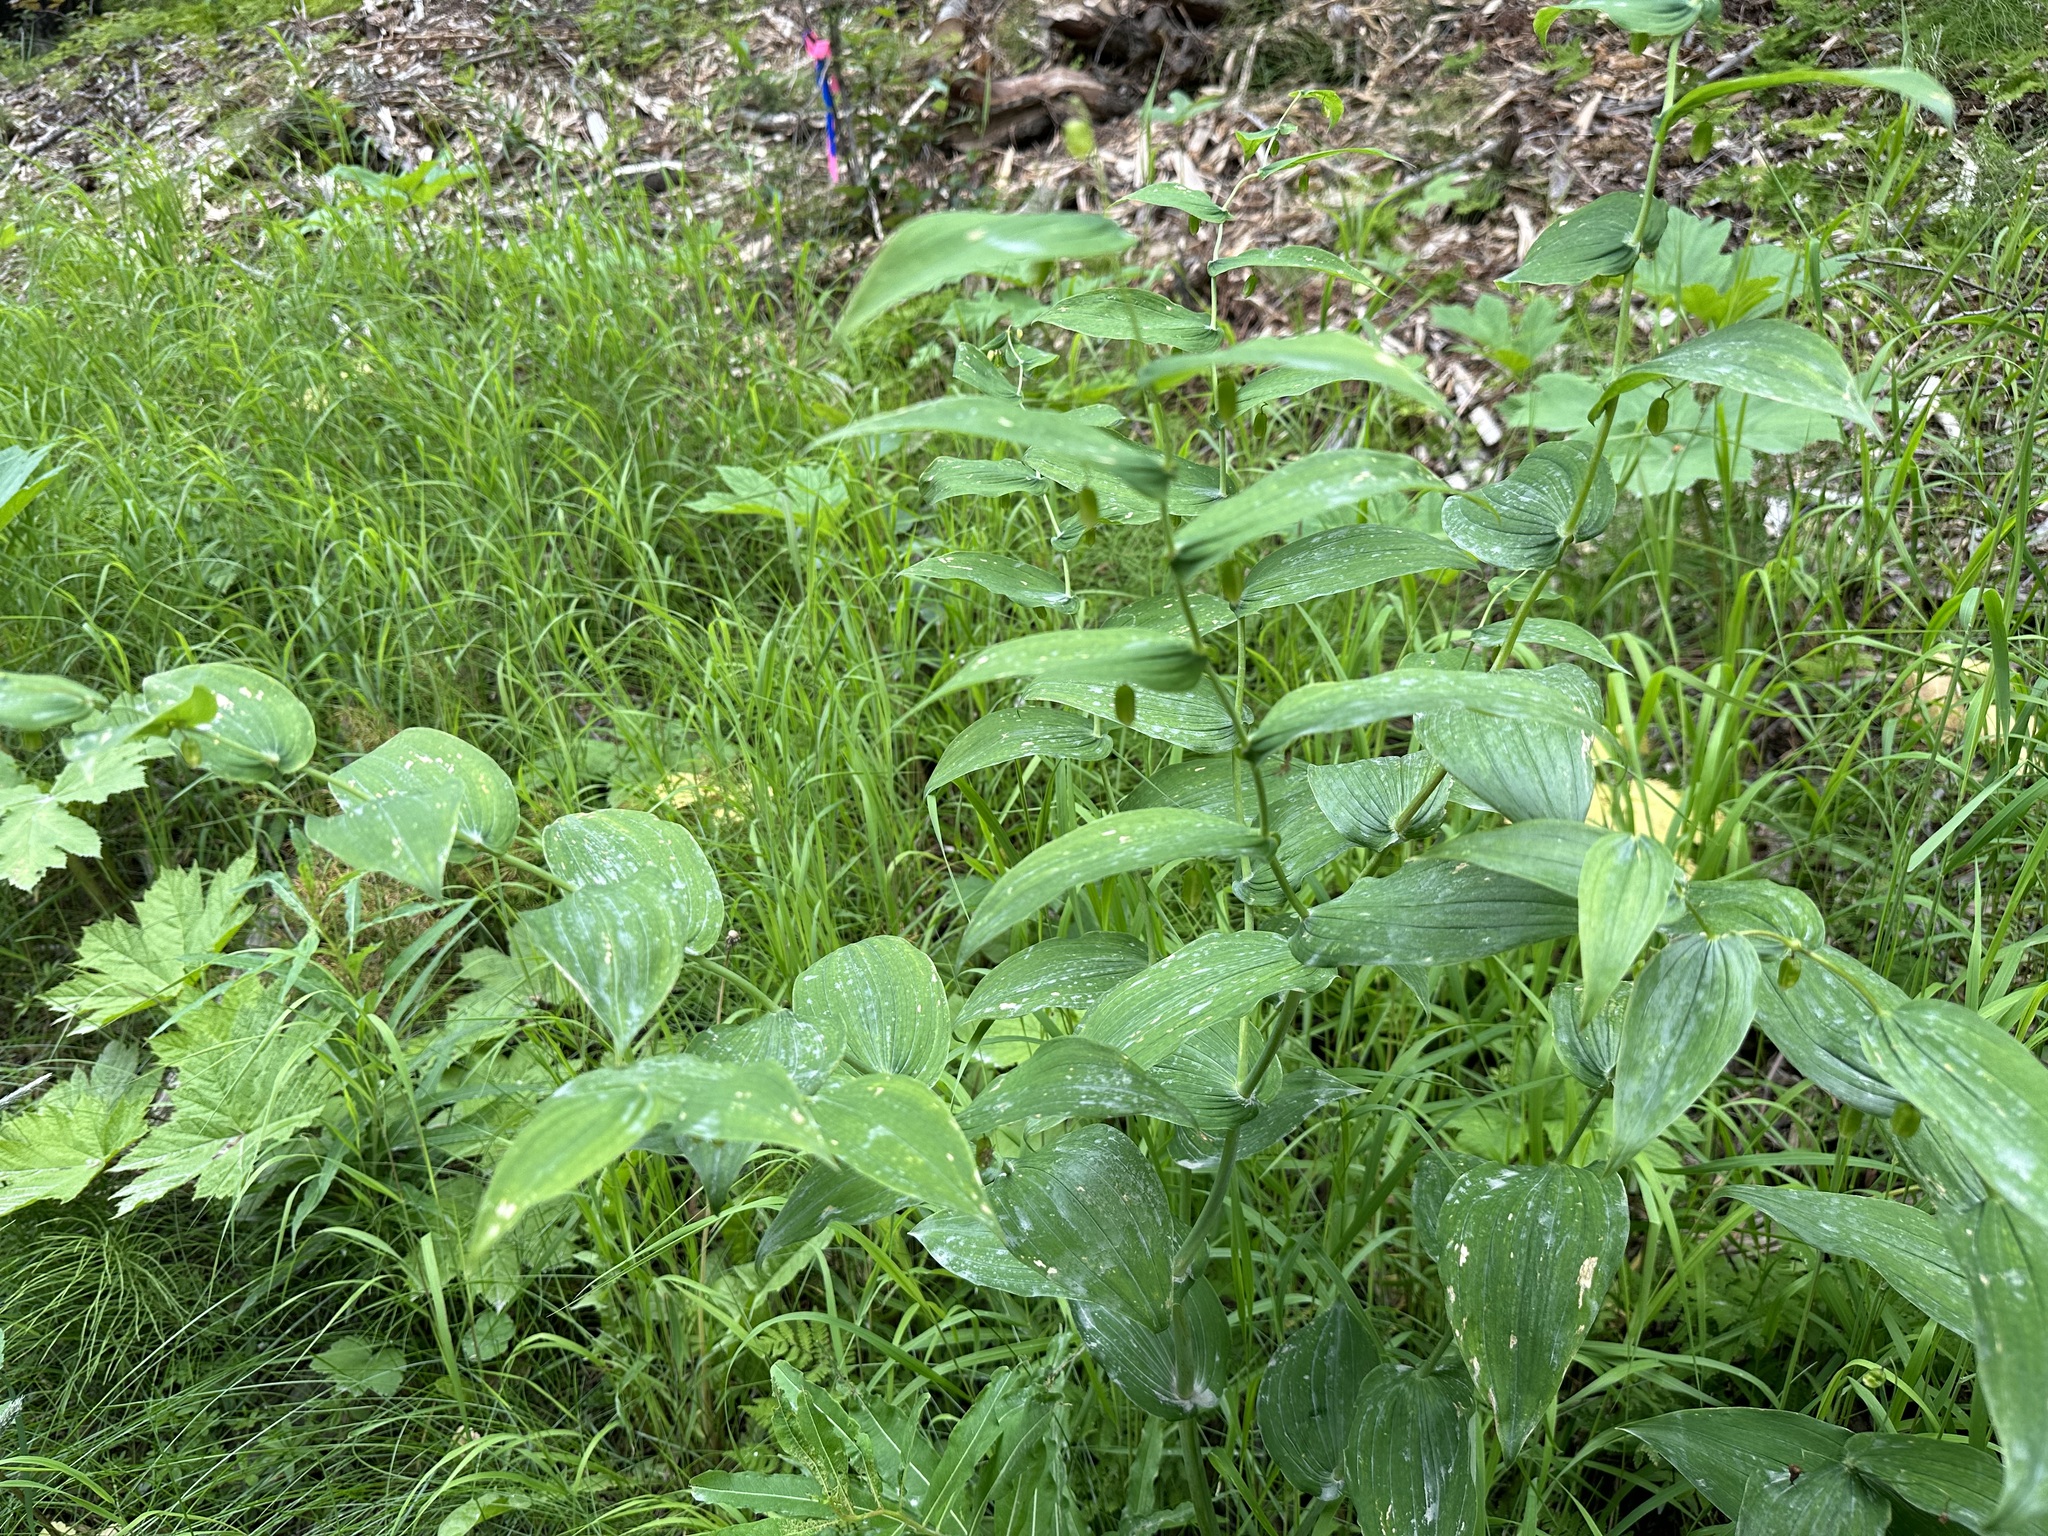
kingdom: Plantae
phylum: Tracheophyta
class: Liliopsida
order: Liliales
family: Liliaceae
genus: Streptopus
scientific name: Streptopus amplexifolius
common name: Clasp twisted stalk
